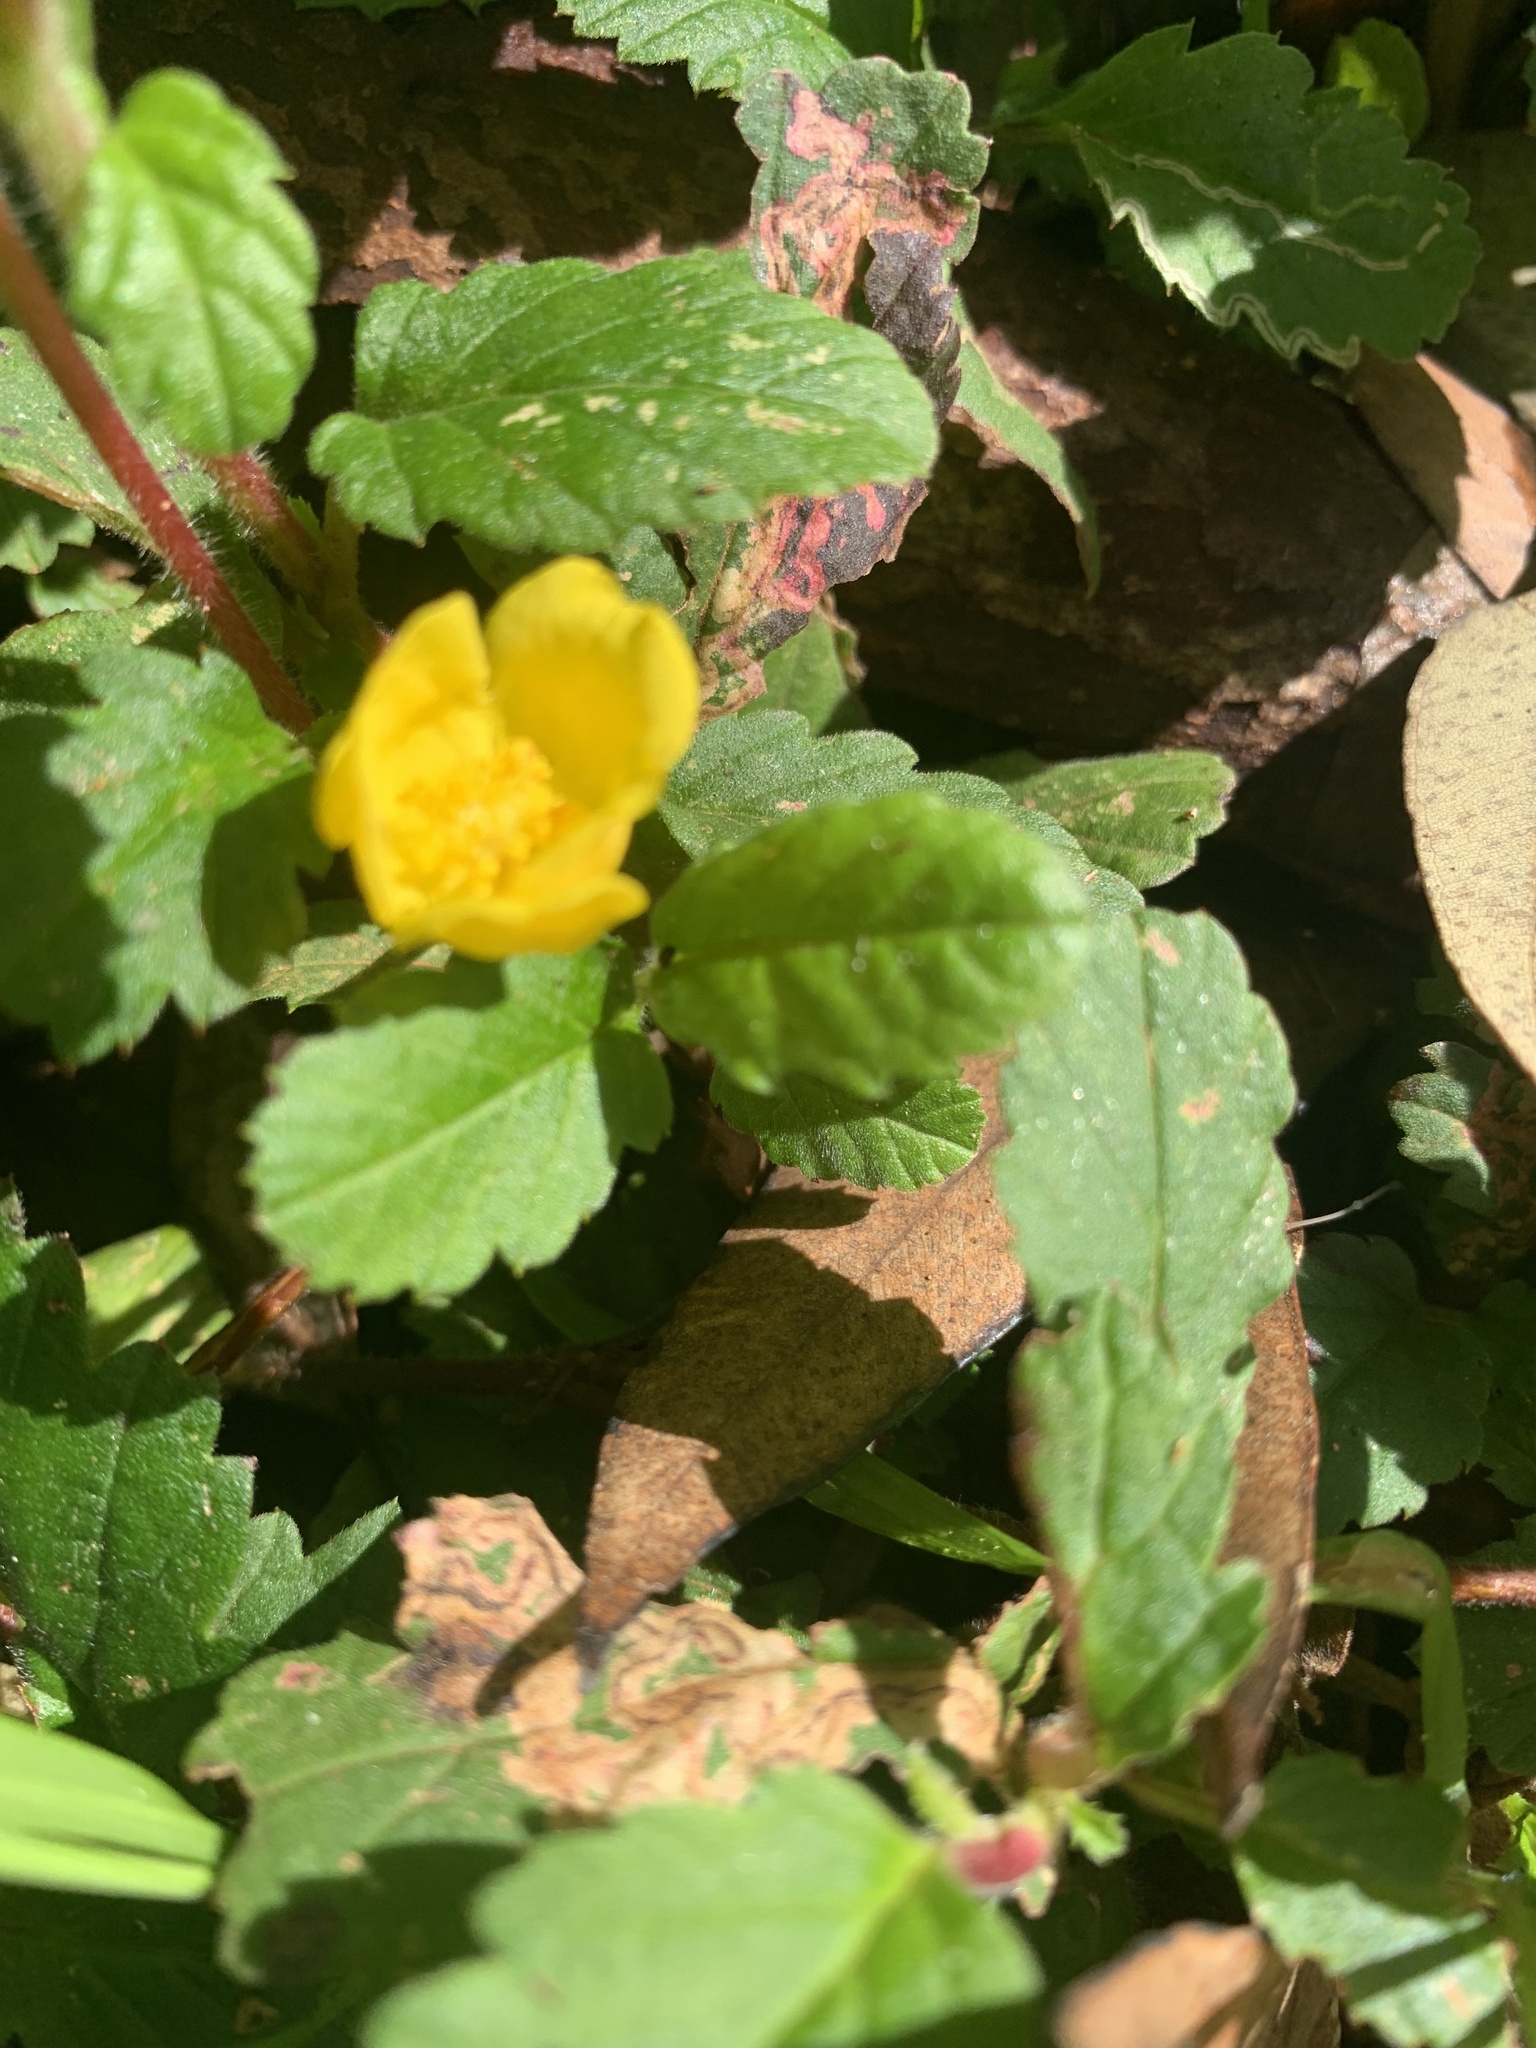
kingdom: Plantae
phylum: Tracheophyta
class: Magnoliopsida
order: Dilleniales
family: Dilleniaceae
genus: Hibbertia
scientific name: Hibbertia grossulariifolia
